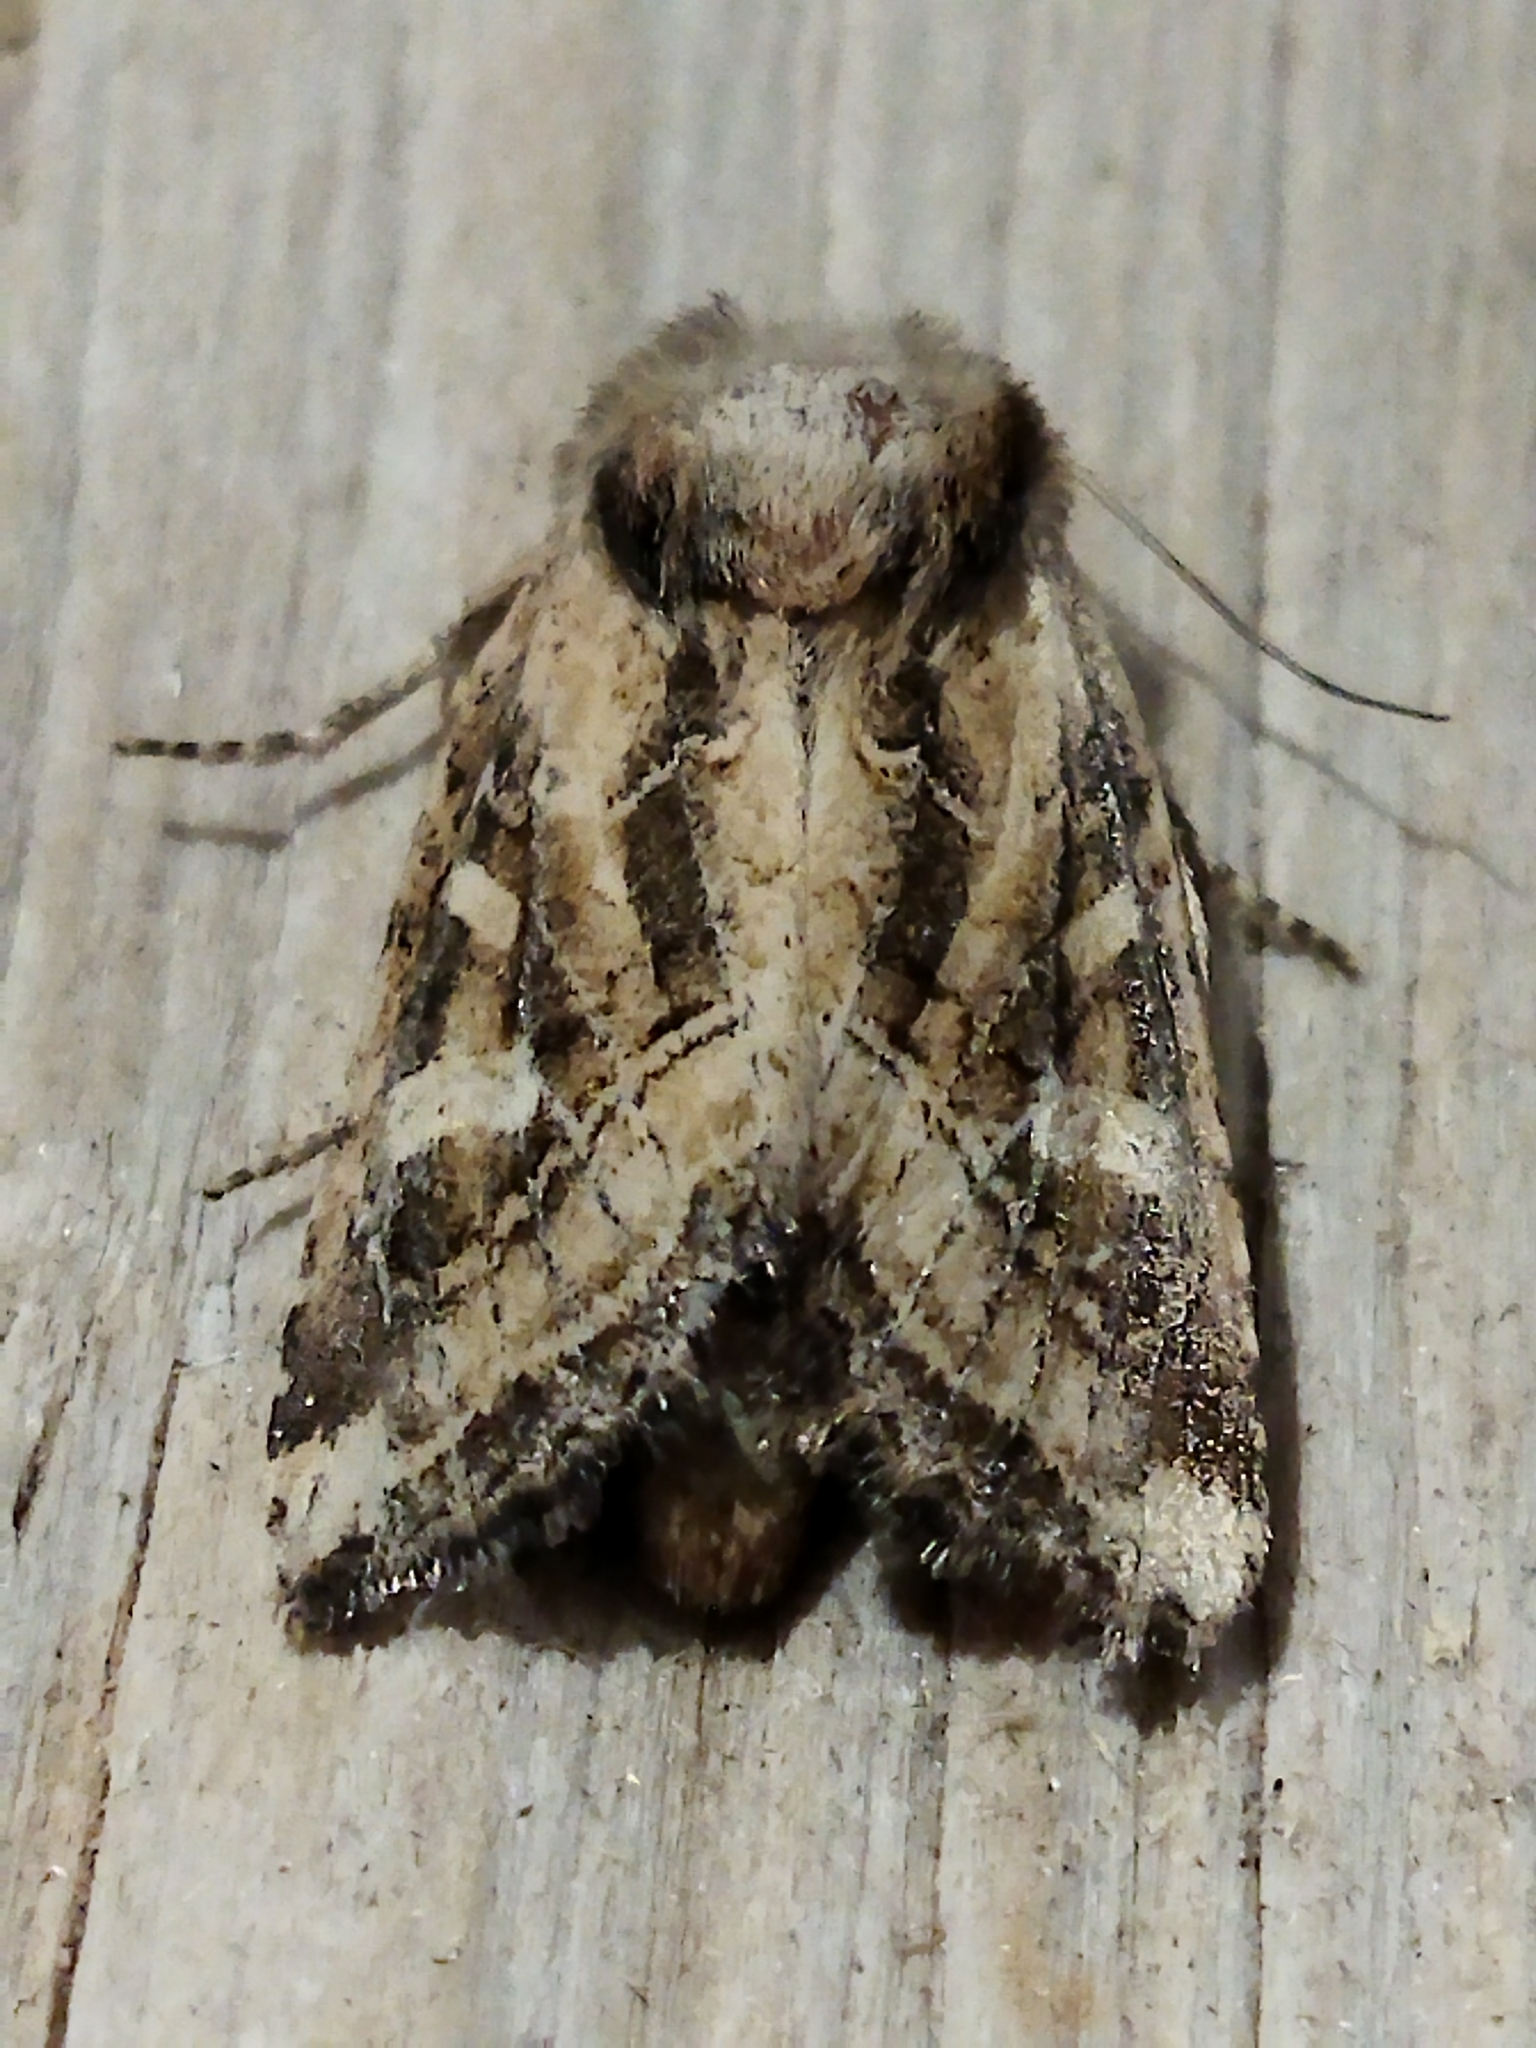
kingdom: Animalia
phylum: Arthropoda
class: Insecta
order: Lepidoptera
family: Noctuidae
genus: Luperina
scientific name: Luperina dumerilii
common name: Dumeril's rustic
